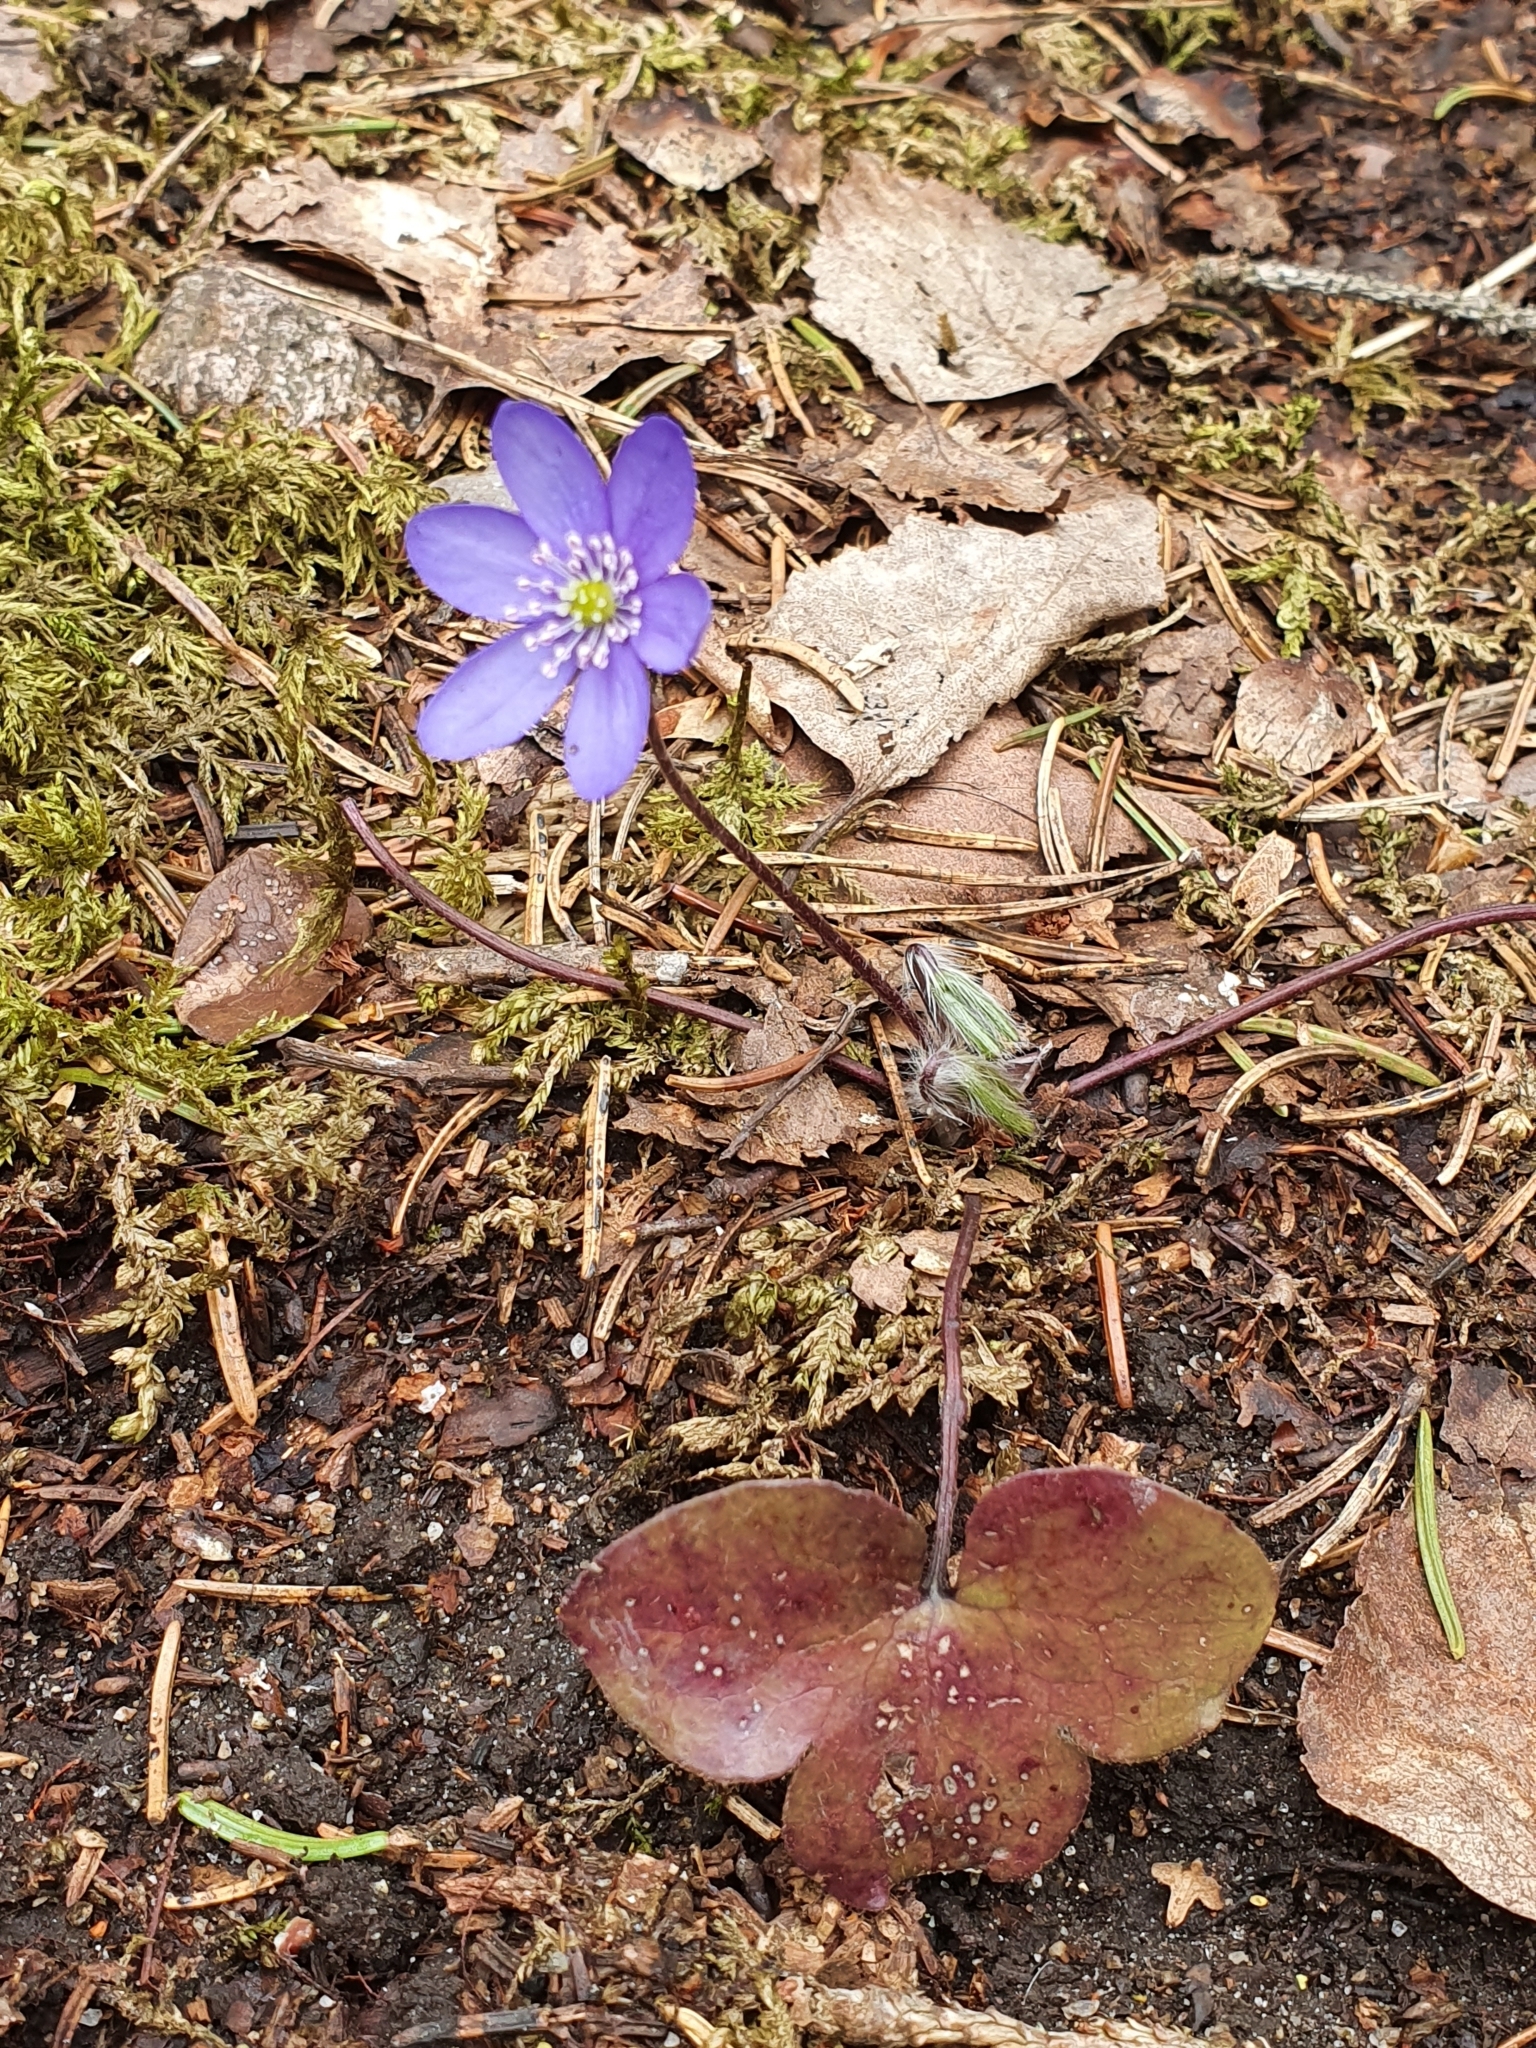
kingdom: Plantae
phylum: Tracheophyta
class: Magnoliopsida
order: Ranunculales
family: Ranunculaceae
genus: Hepatica
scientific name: Hepatica nobilis
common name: Liverleaf
